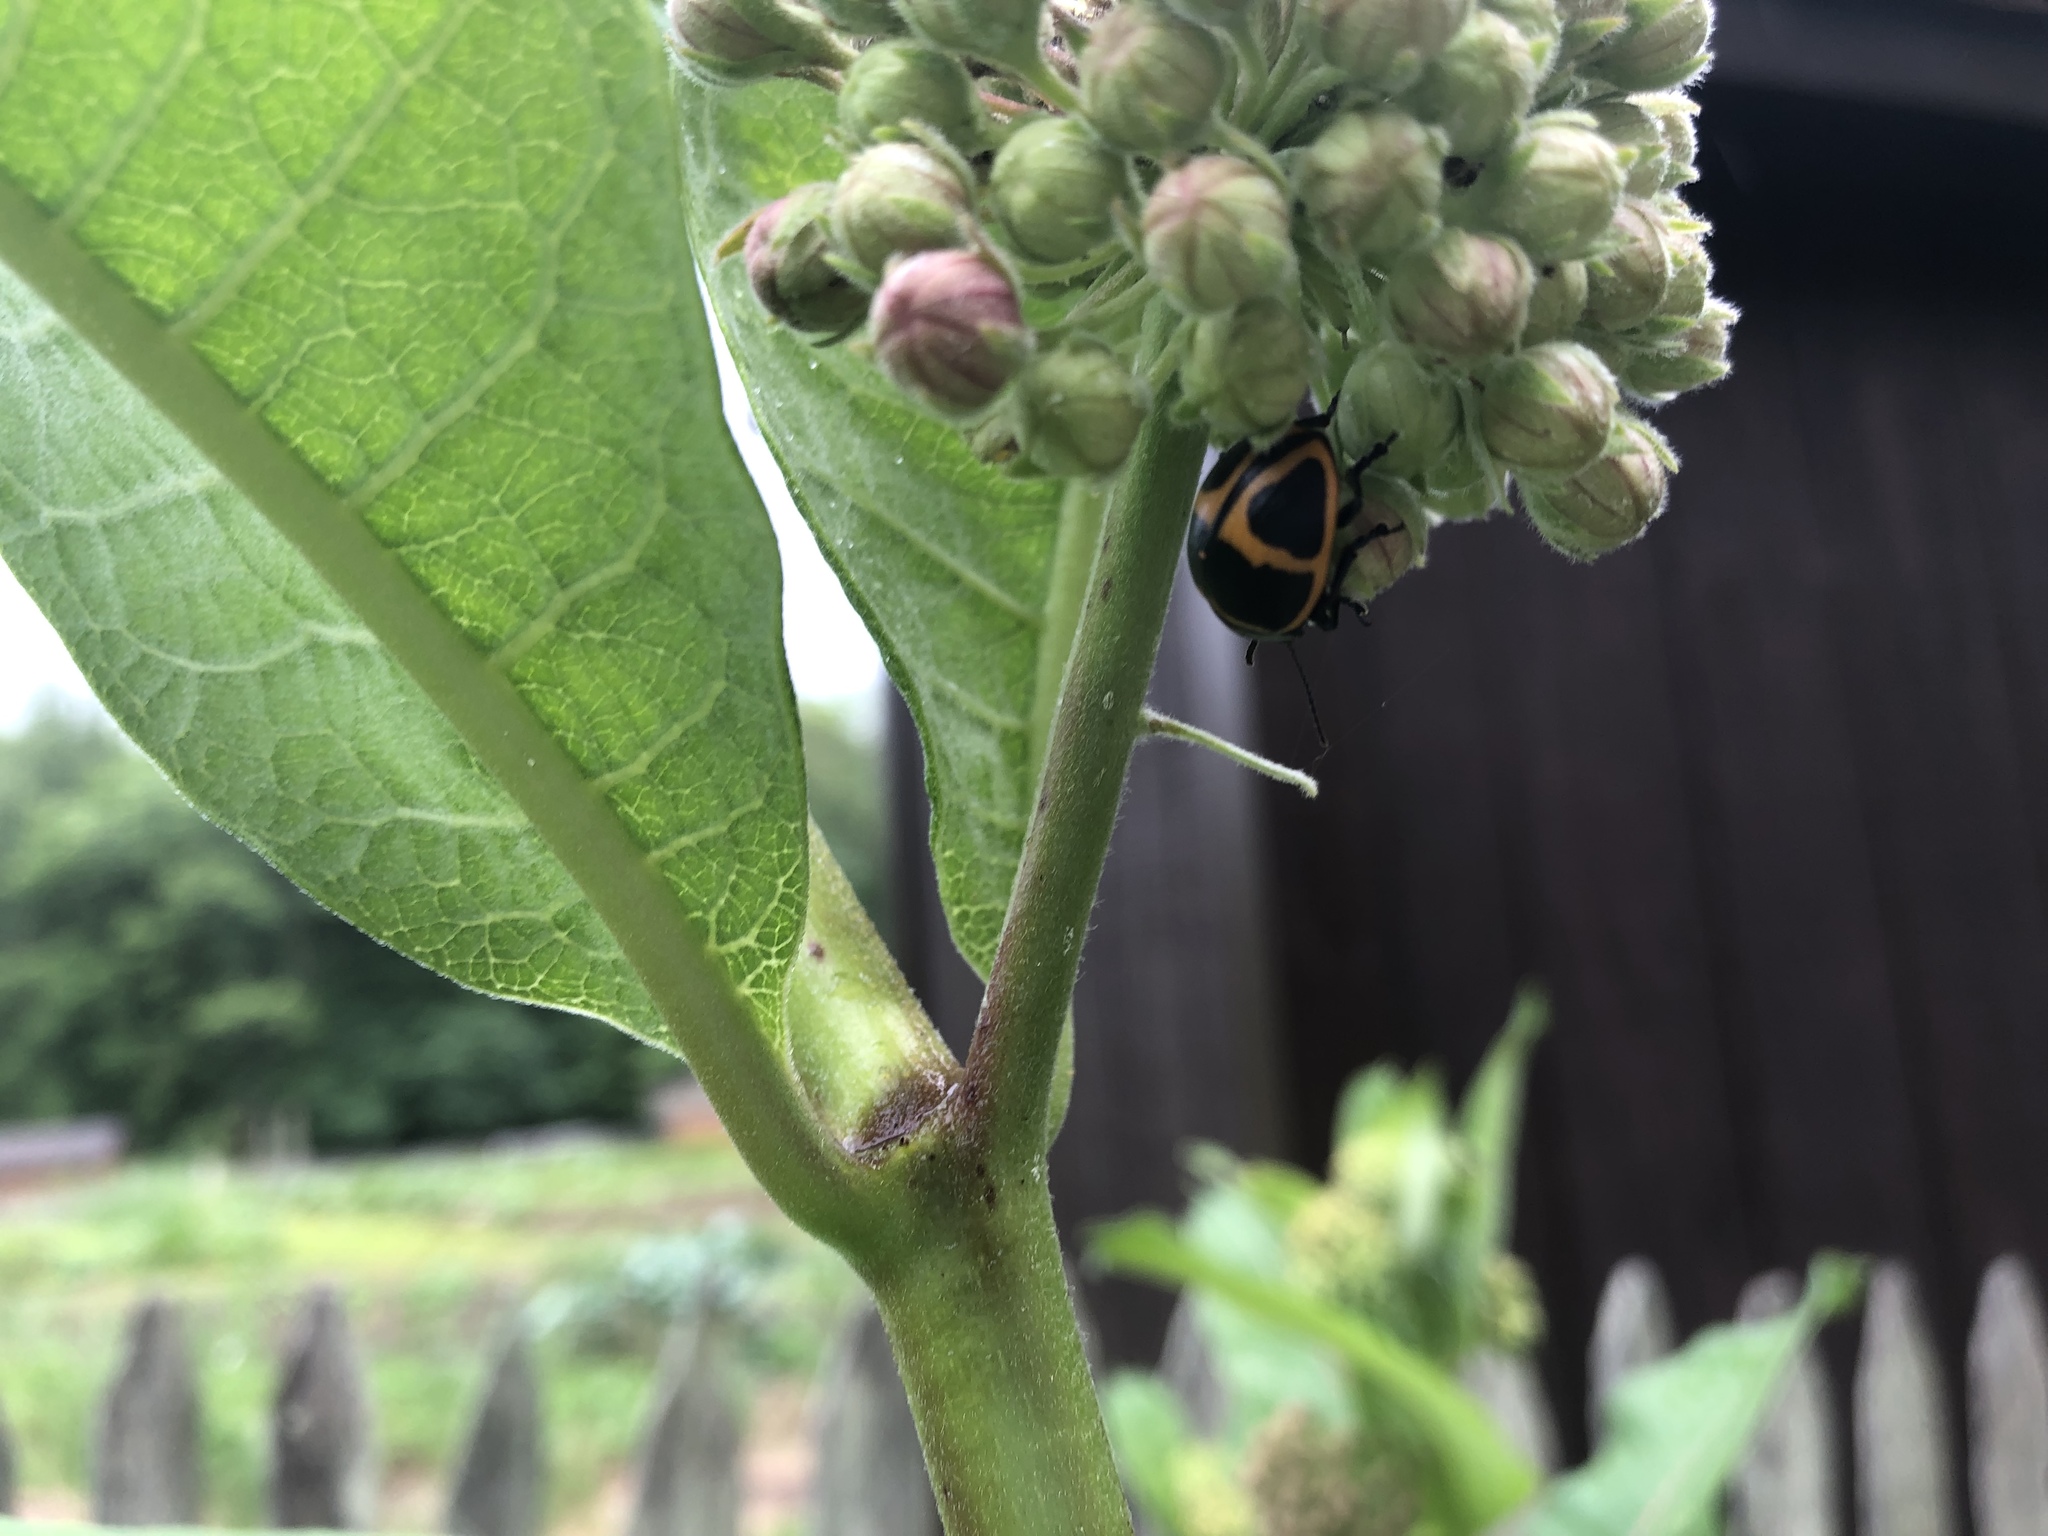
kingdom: Animalia
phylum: Arthropoda
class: Insecta
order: Coleoptera
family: Chrysomelidae
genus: Labidomera
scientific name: Labidomera clivicollis
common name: Swamp milkweed leaf beetle
